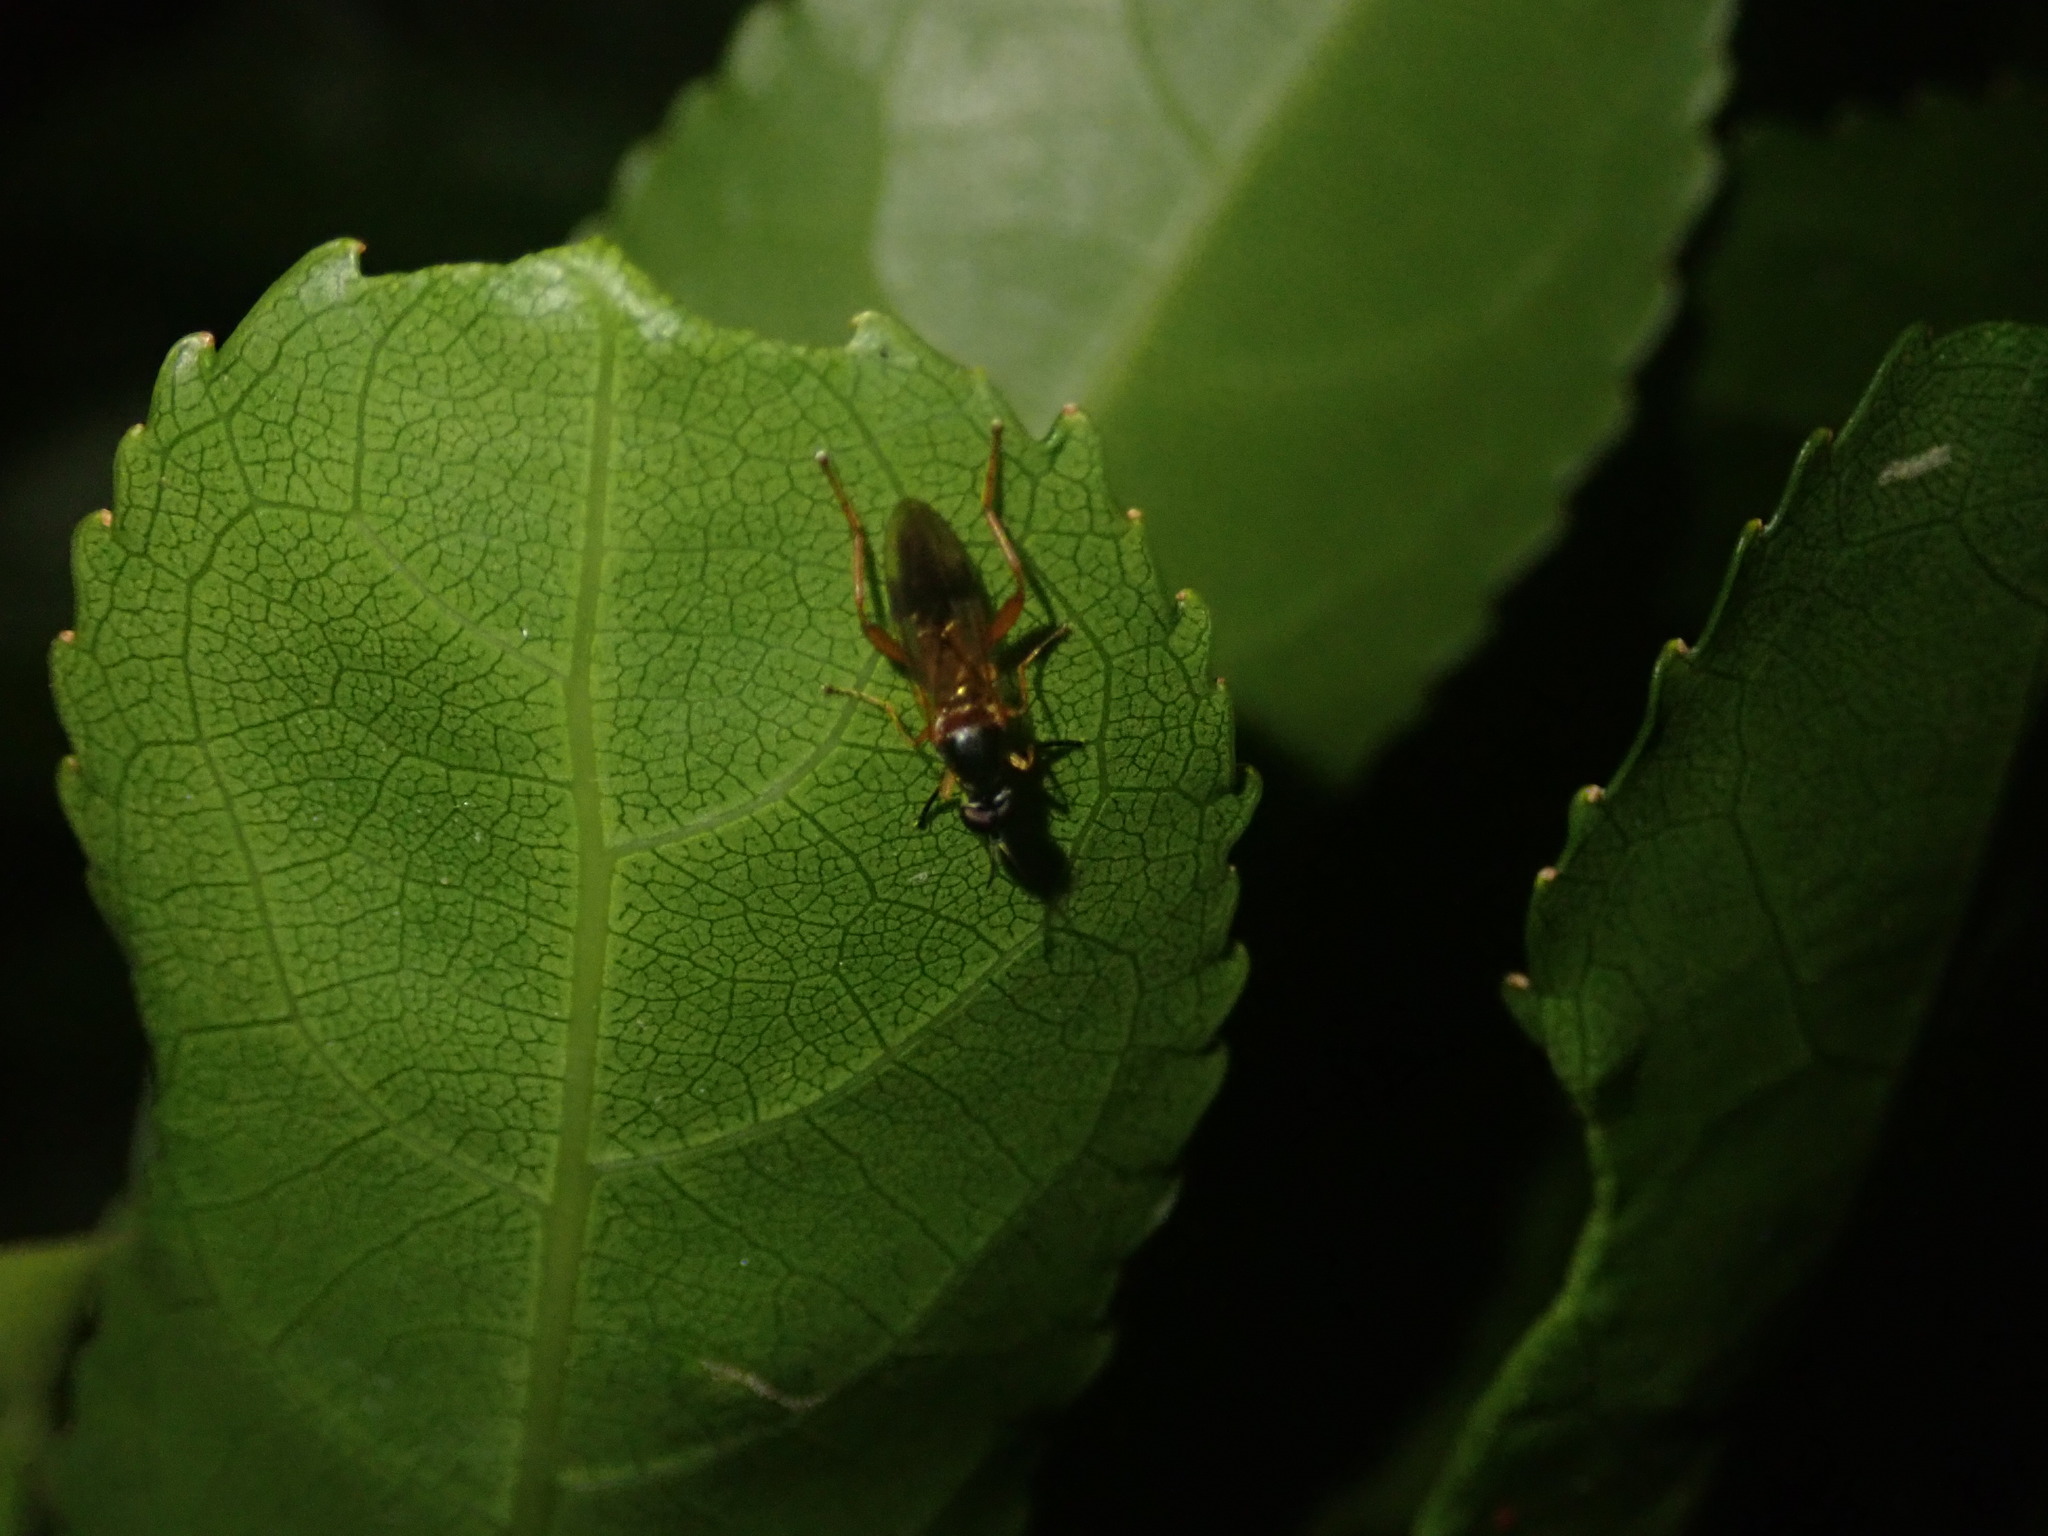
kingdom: Animalia
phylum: Arthropoda
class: Insecta
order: Diptera
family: Stratiomyidae
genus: Benhamyia
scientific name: Benhamyia apicalis
